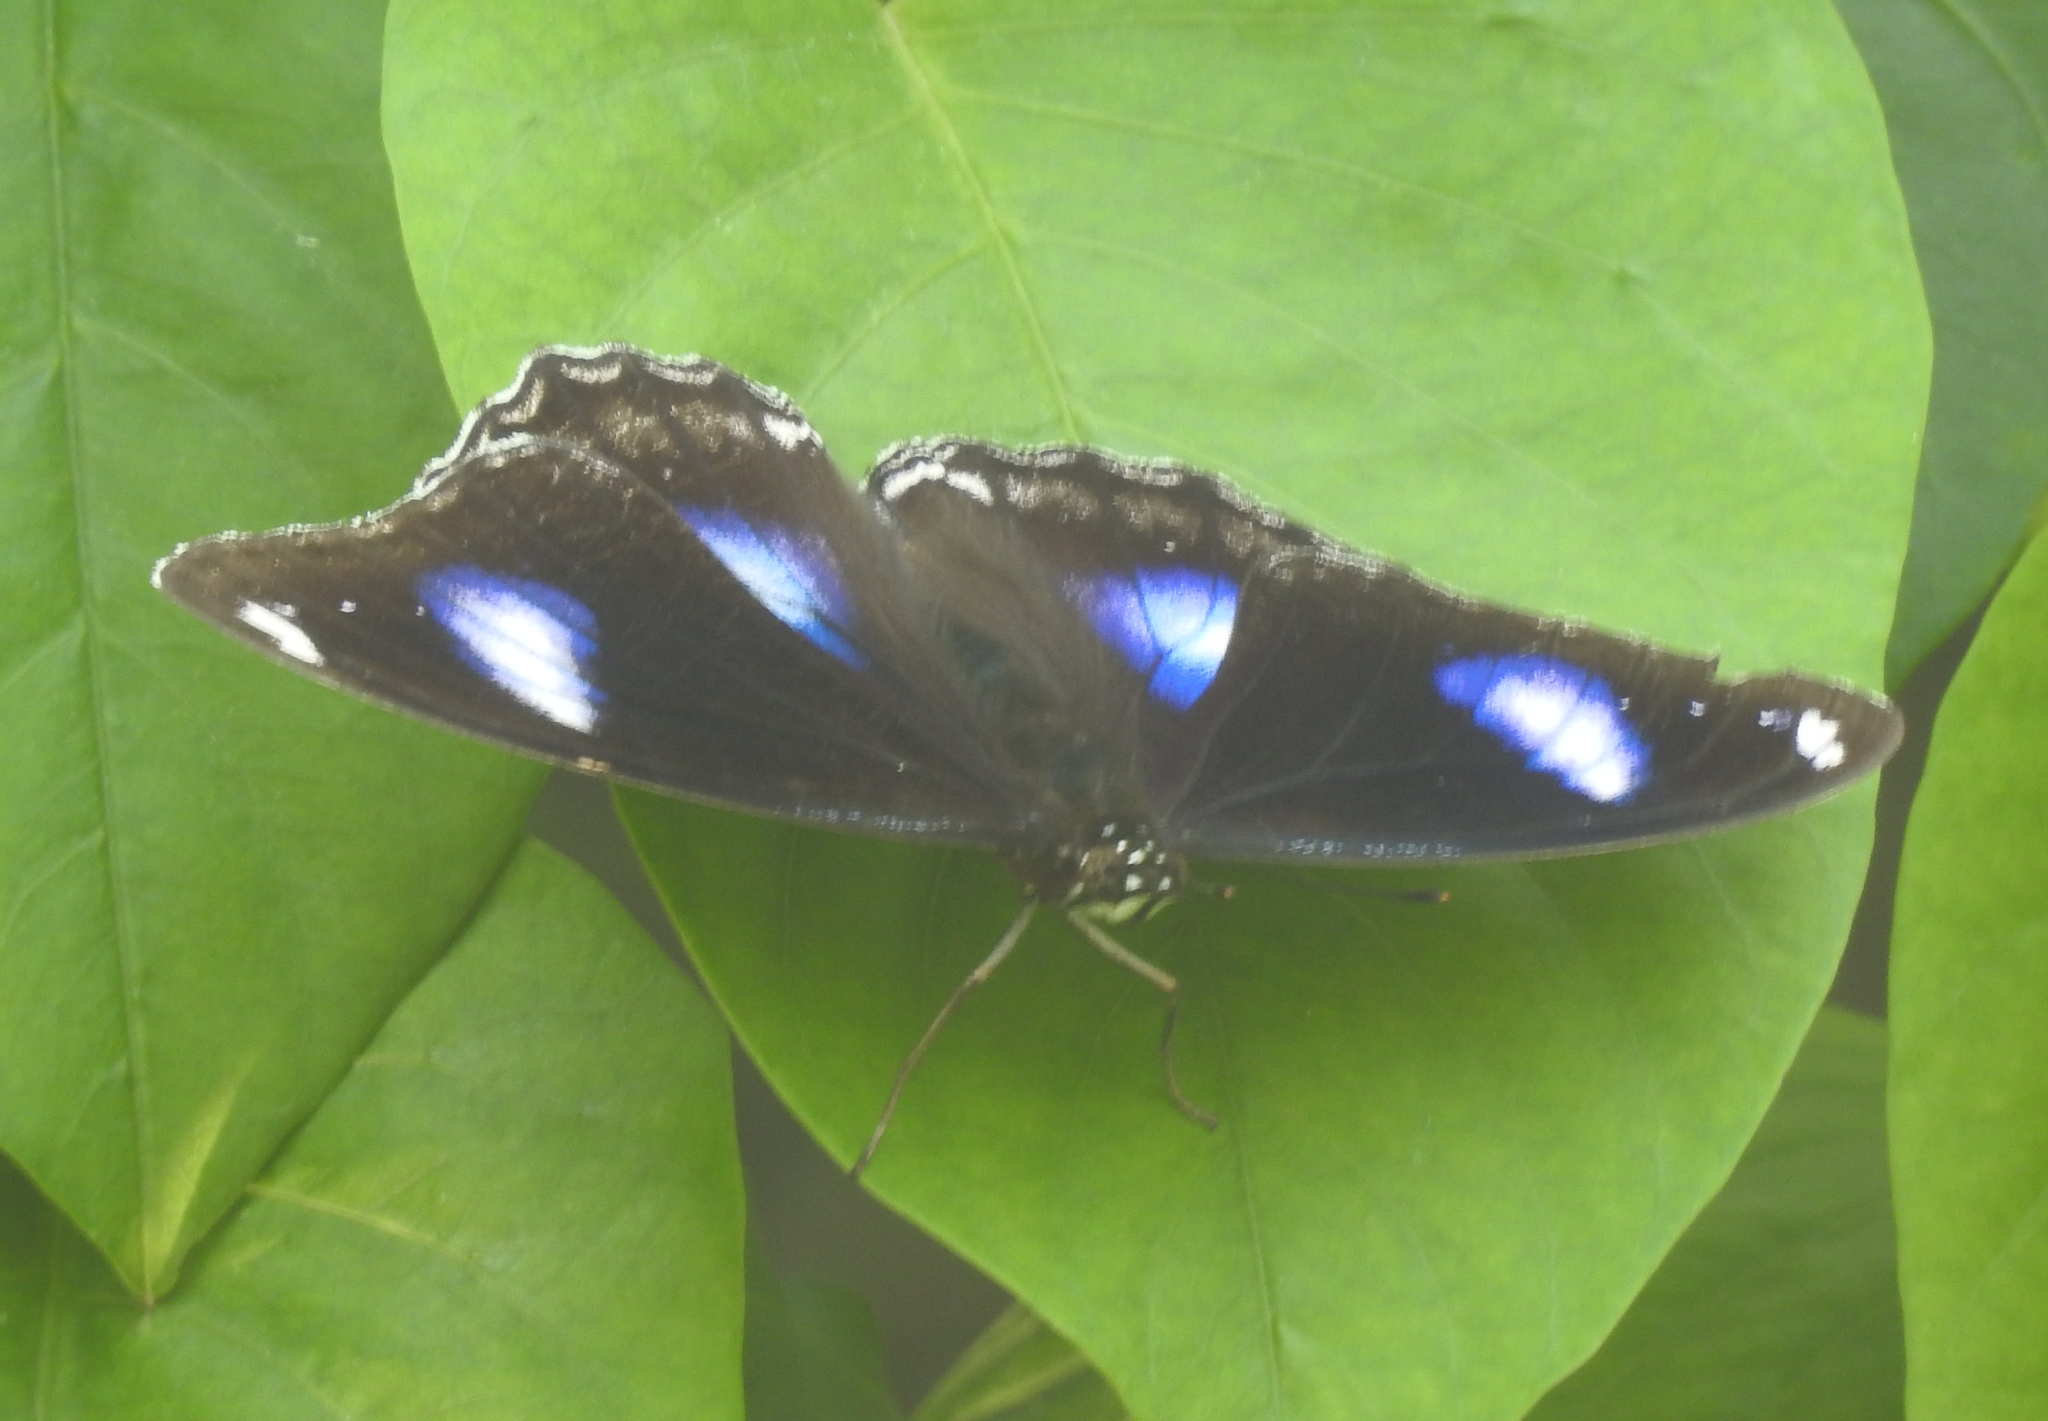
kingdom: Animalia
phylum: Arthropoda
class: Insecta
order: Lepidoptera
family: Nymphalidae
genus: Hypolimnas
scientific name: Hypolimnas bolina
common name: Great eggfly
